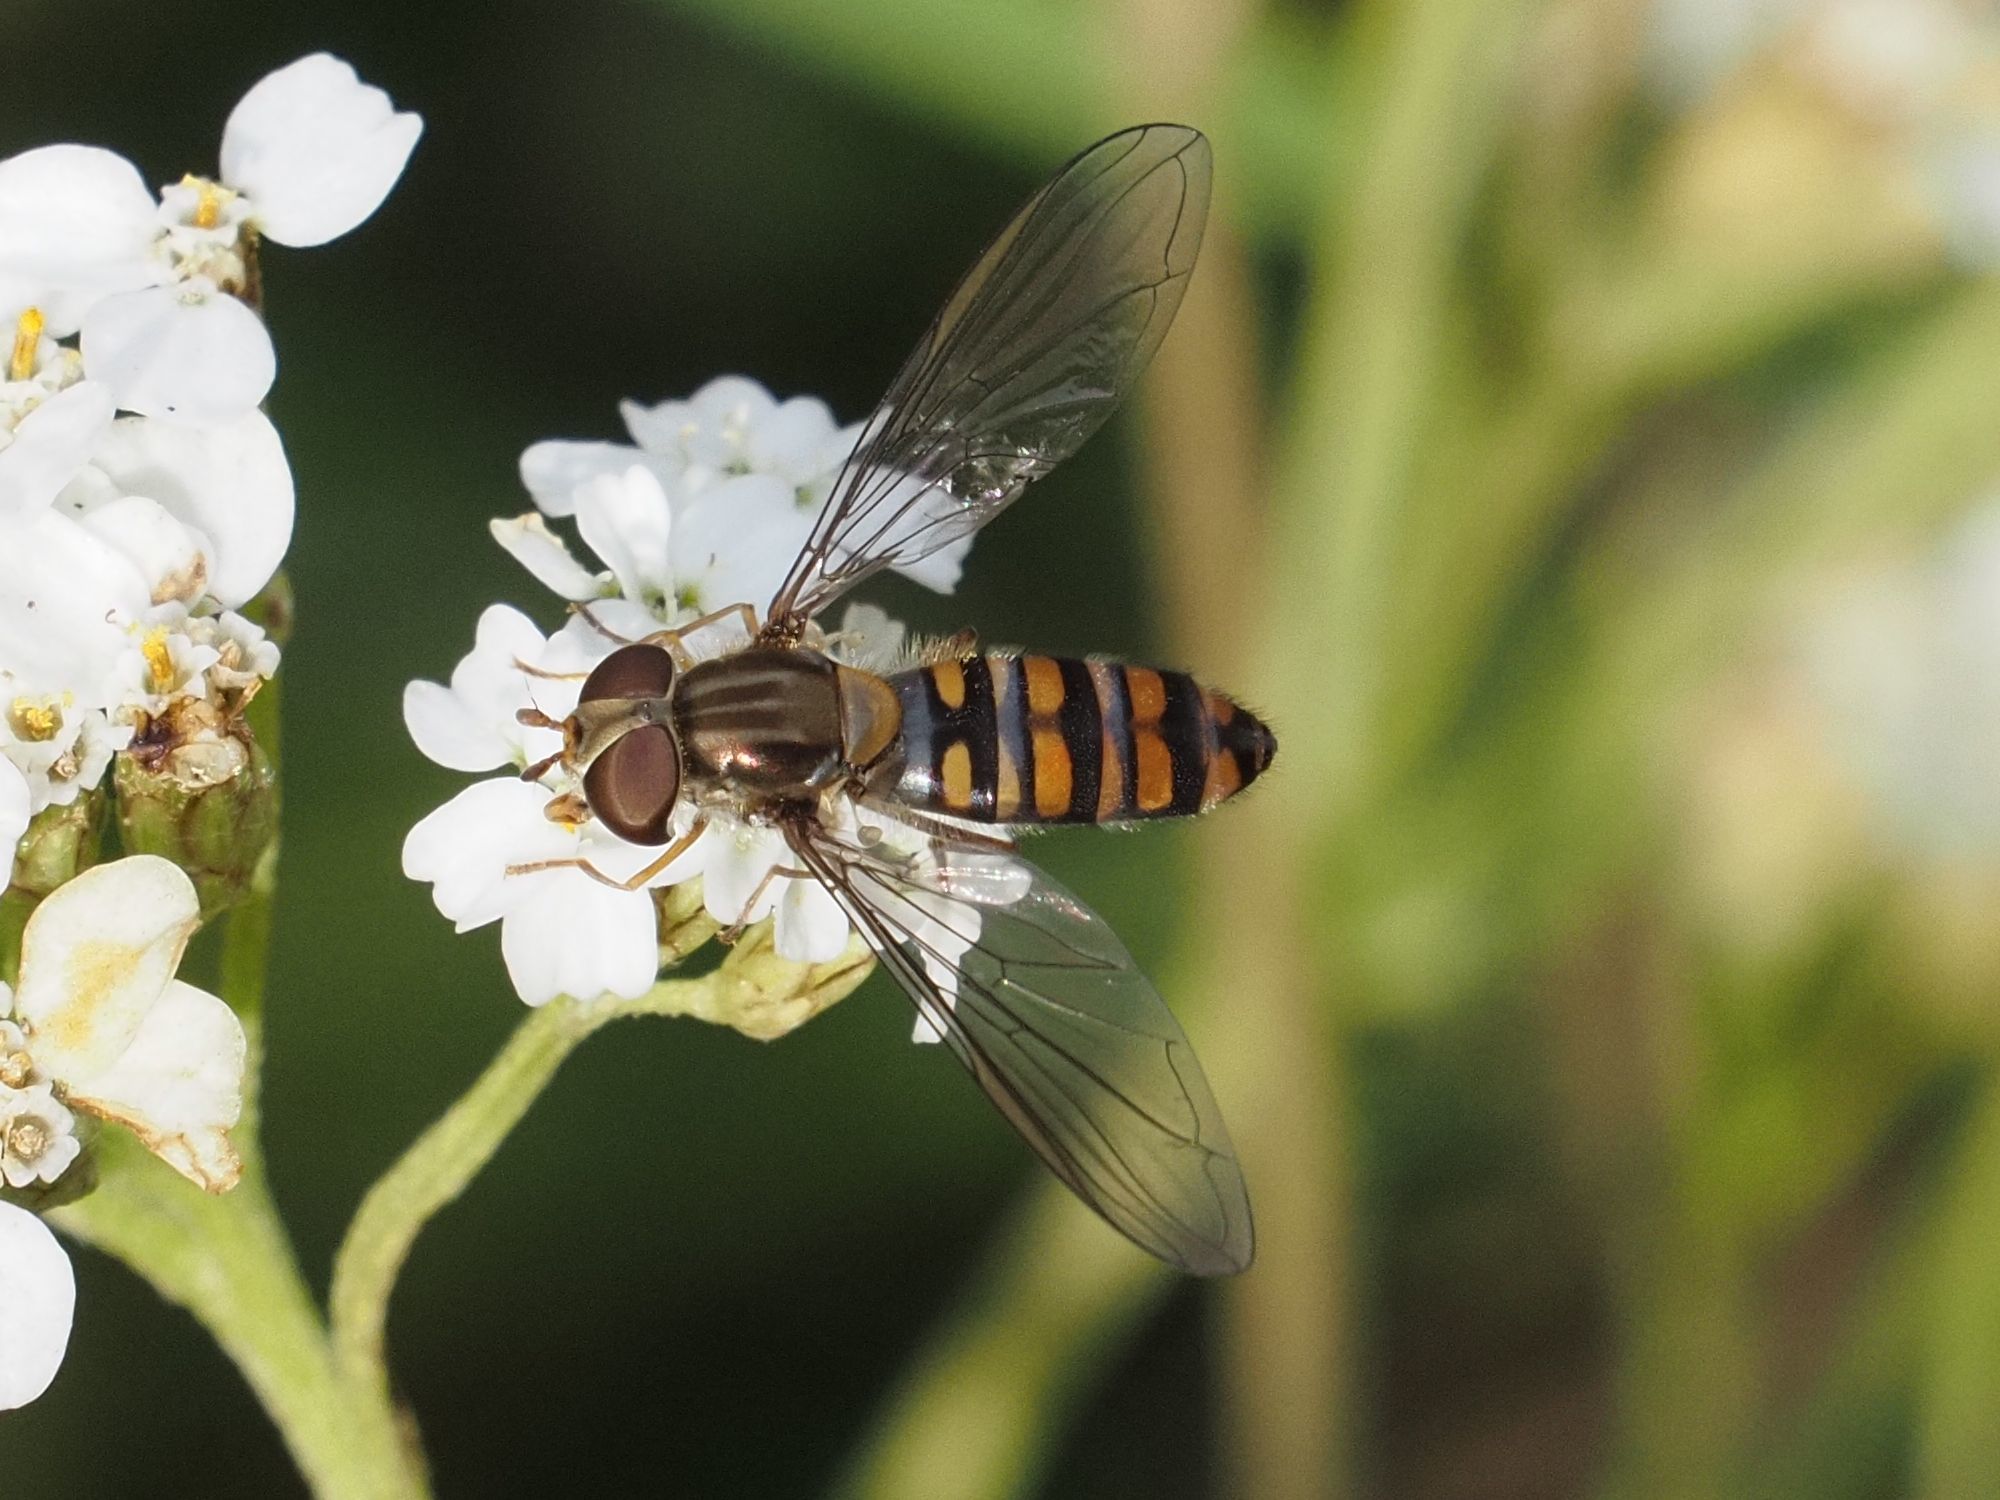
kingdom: Animalia
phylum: Arthropoda
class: Insecta
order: Diptera
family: Syrphidae
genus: Episyrphus
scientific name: Episyrphus balteatus
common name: Marmalade hoverfly
